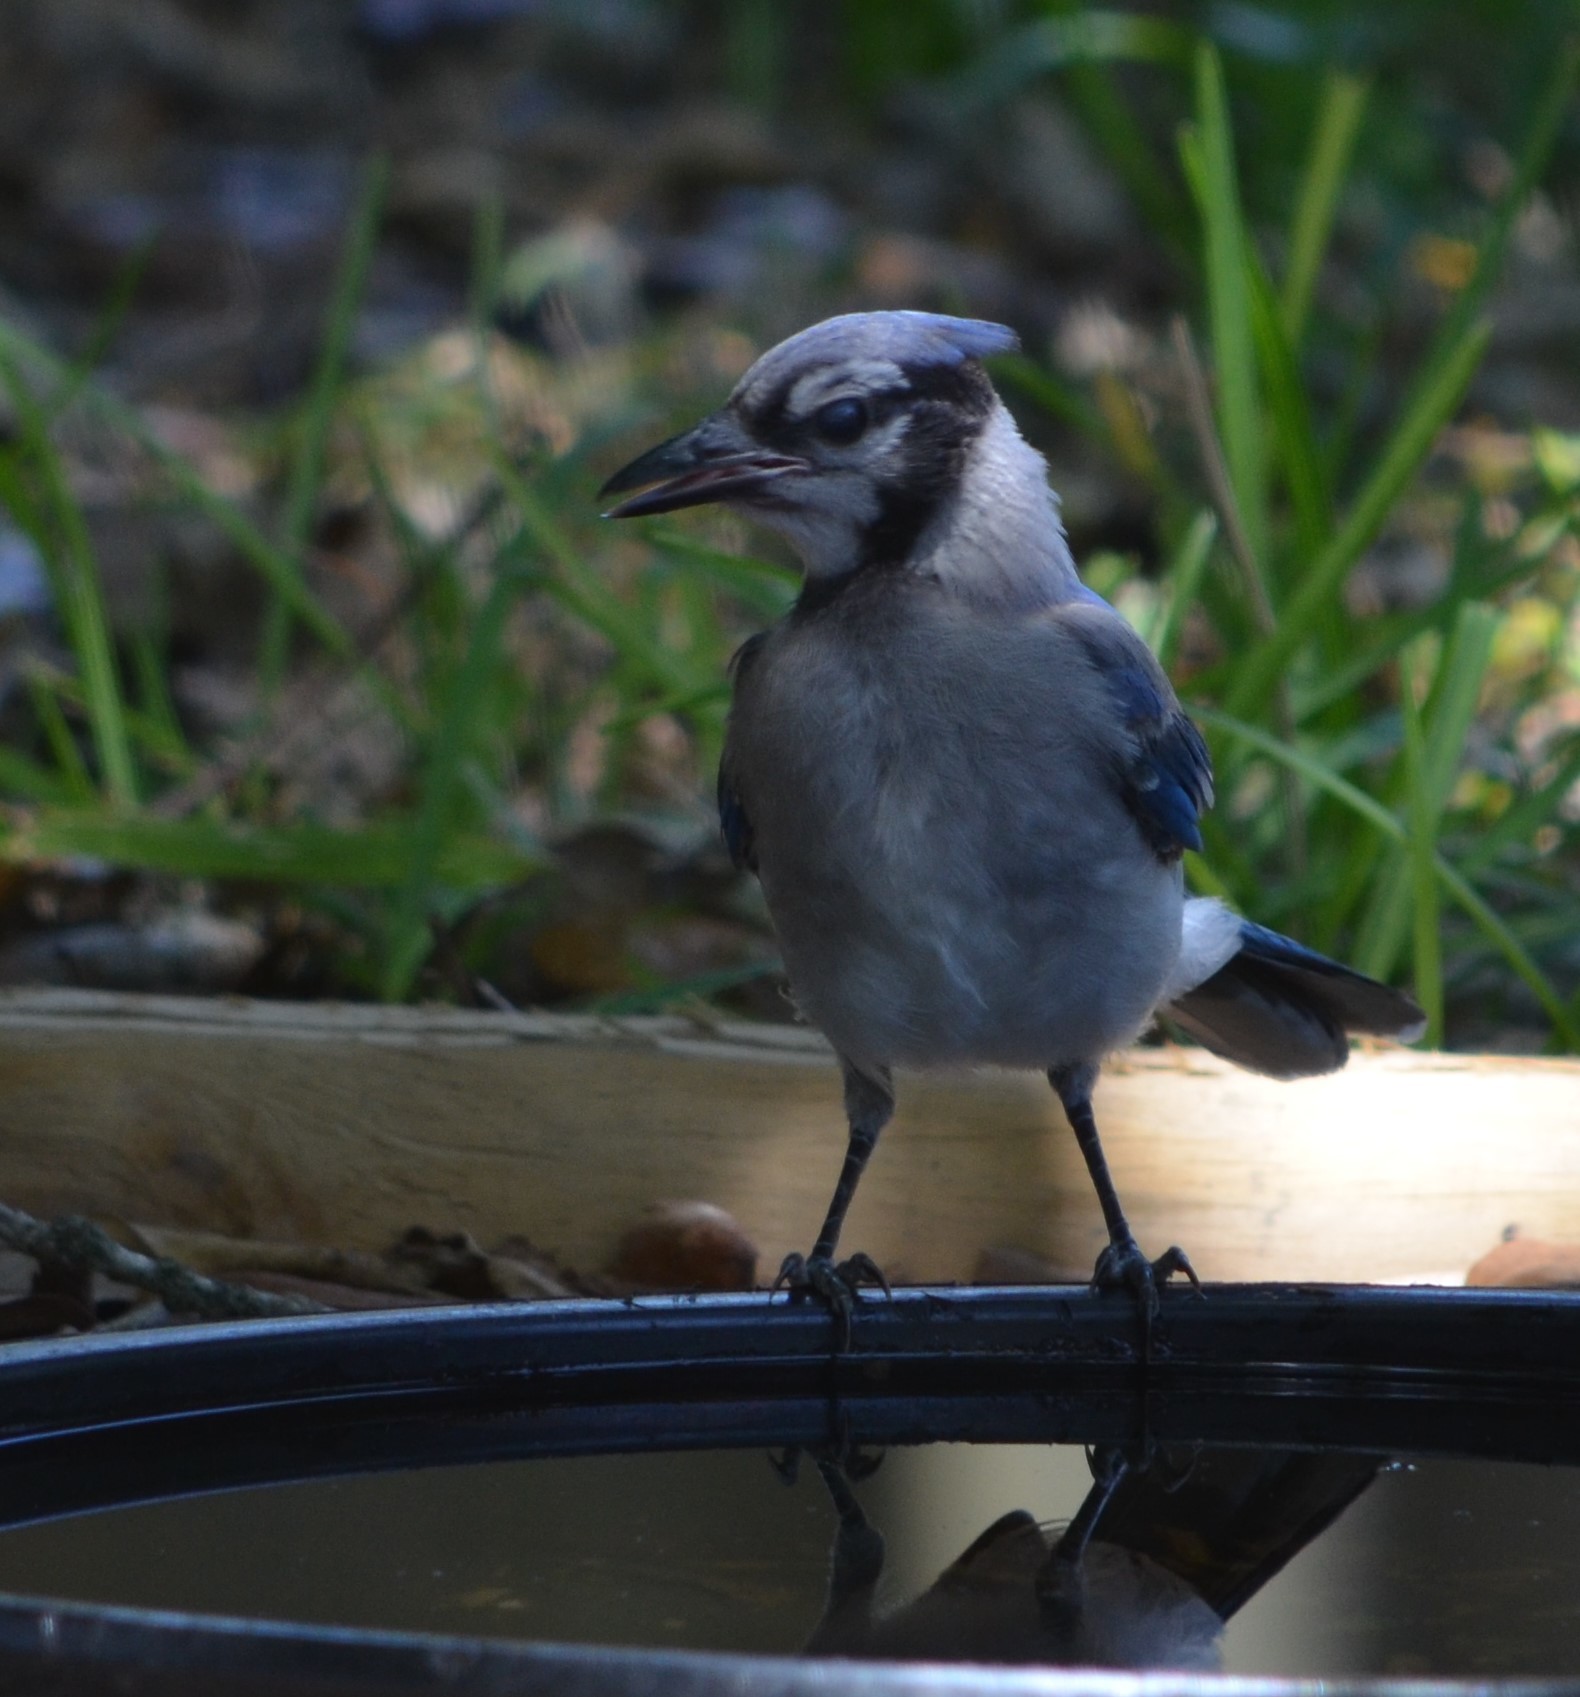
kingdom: Animalia
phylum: Chordata
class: Aves
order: Passeriformes
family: Corvidae
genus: Cyanocitta
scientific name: Cyanocitta cristata
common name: Blue jay
